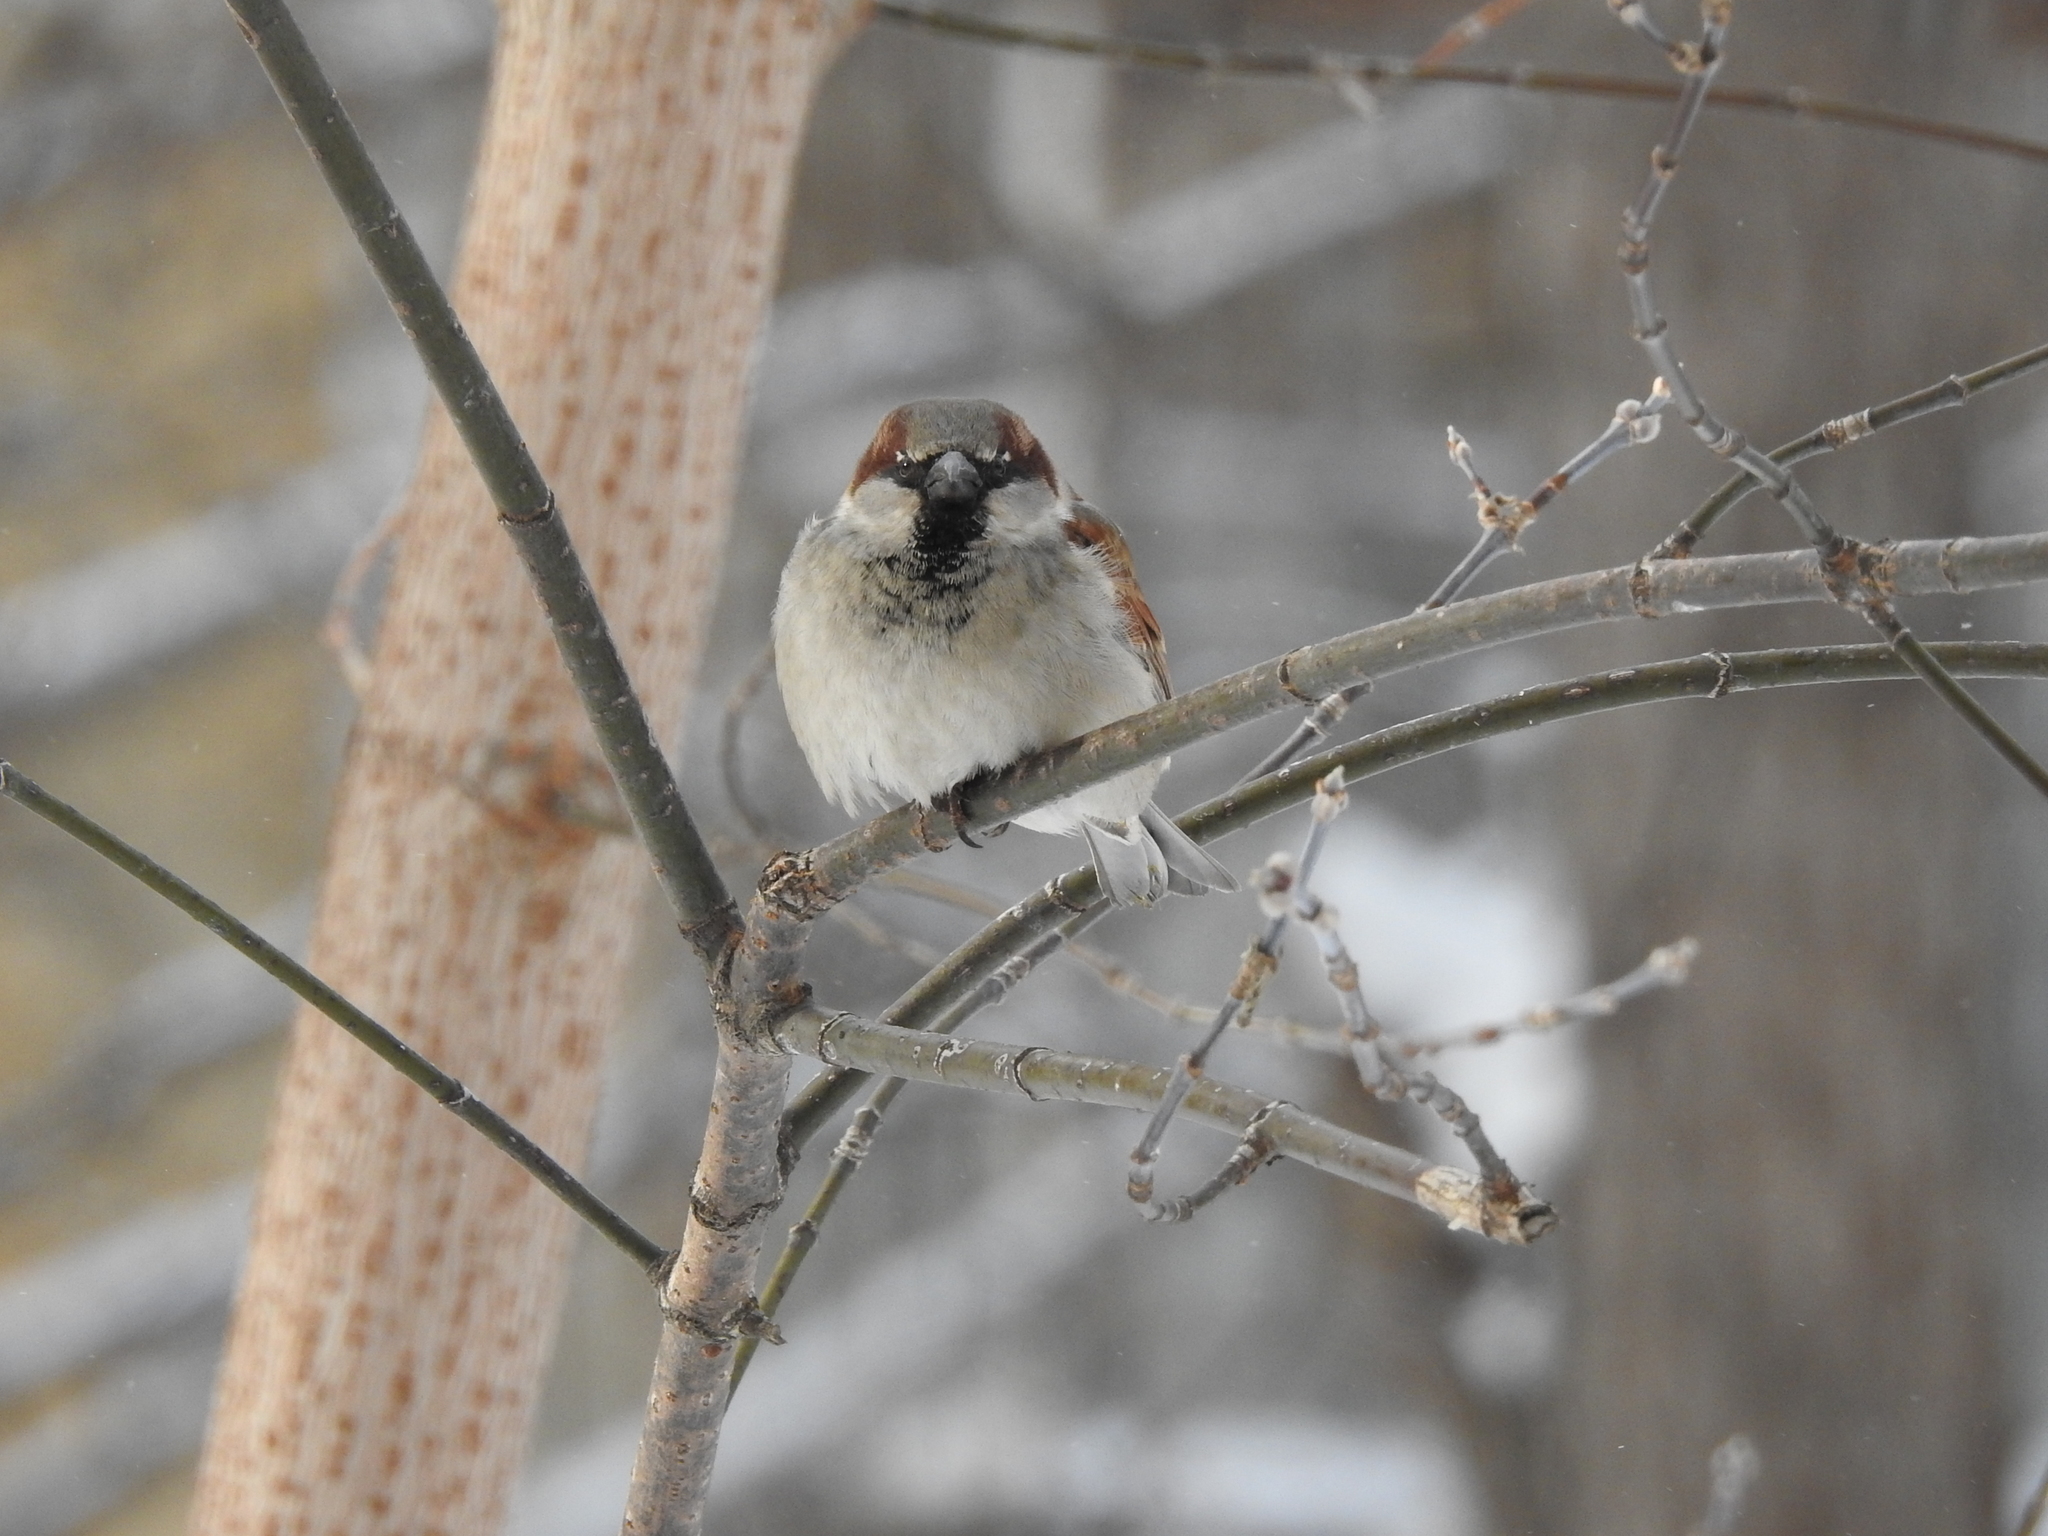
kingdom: Animalia
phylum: Chordata
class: Aves
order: Passeriformes
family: Passeridae
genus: Passer
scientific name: Passer domesticus
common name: House sparrow
